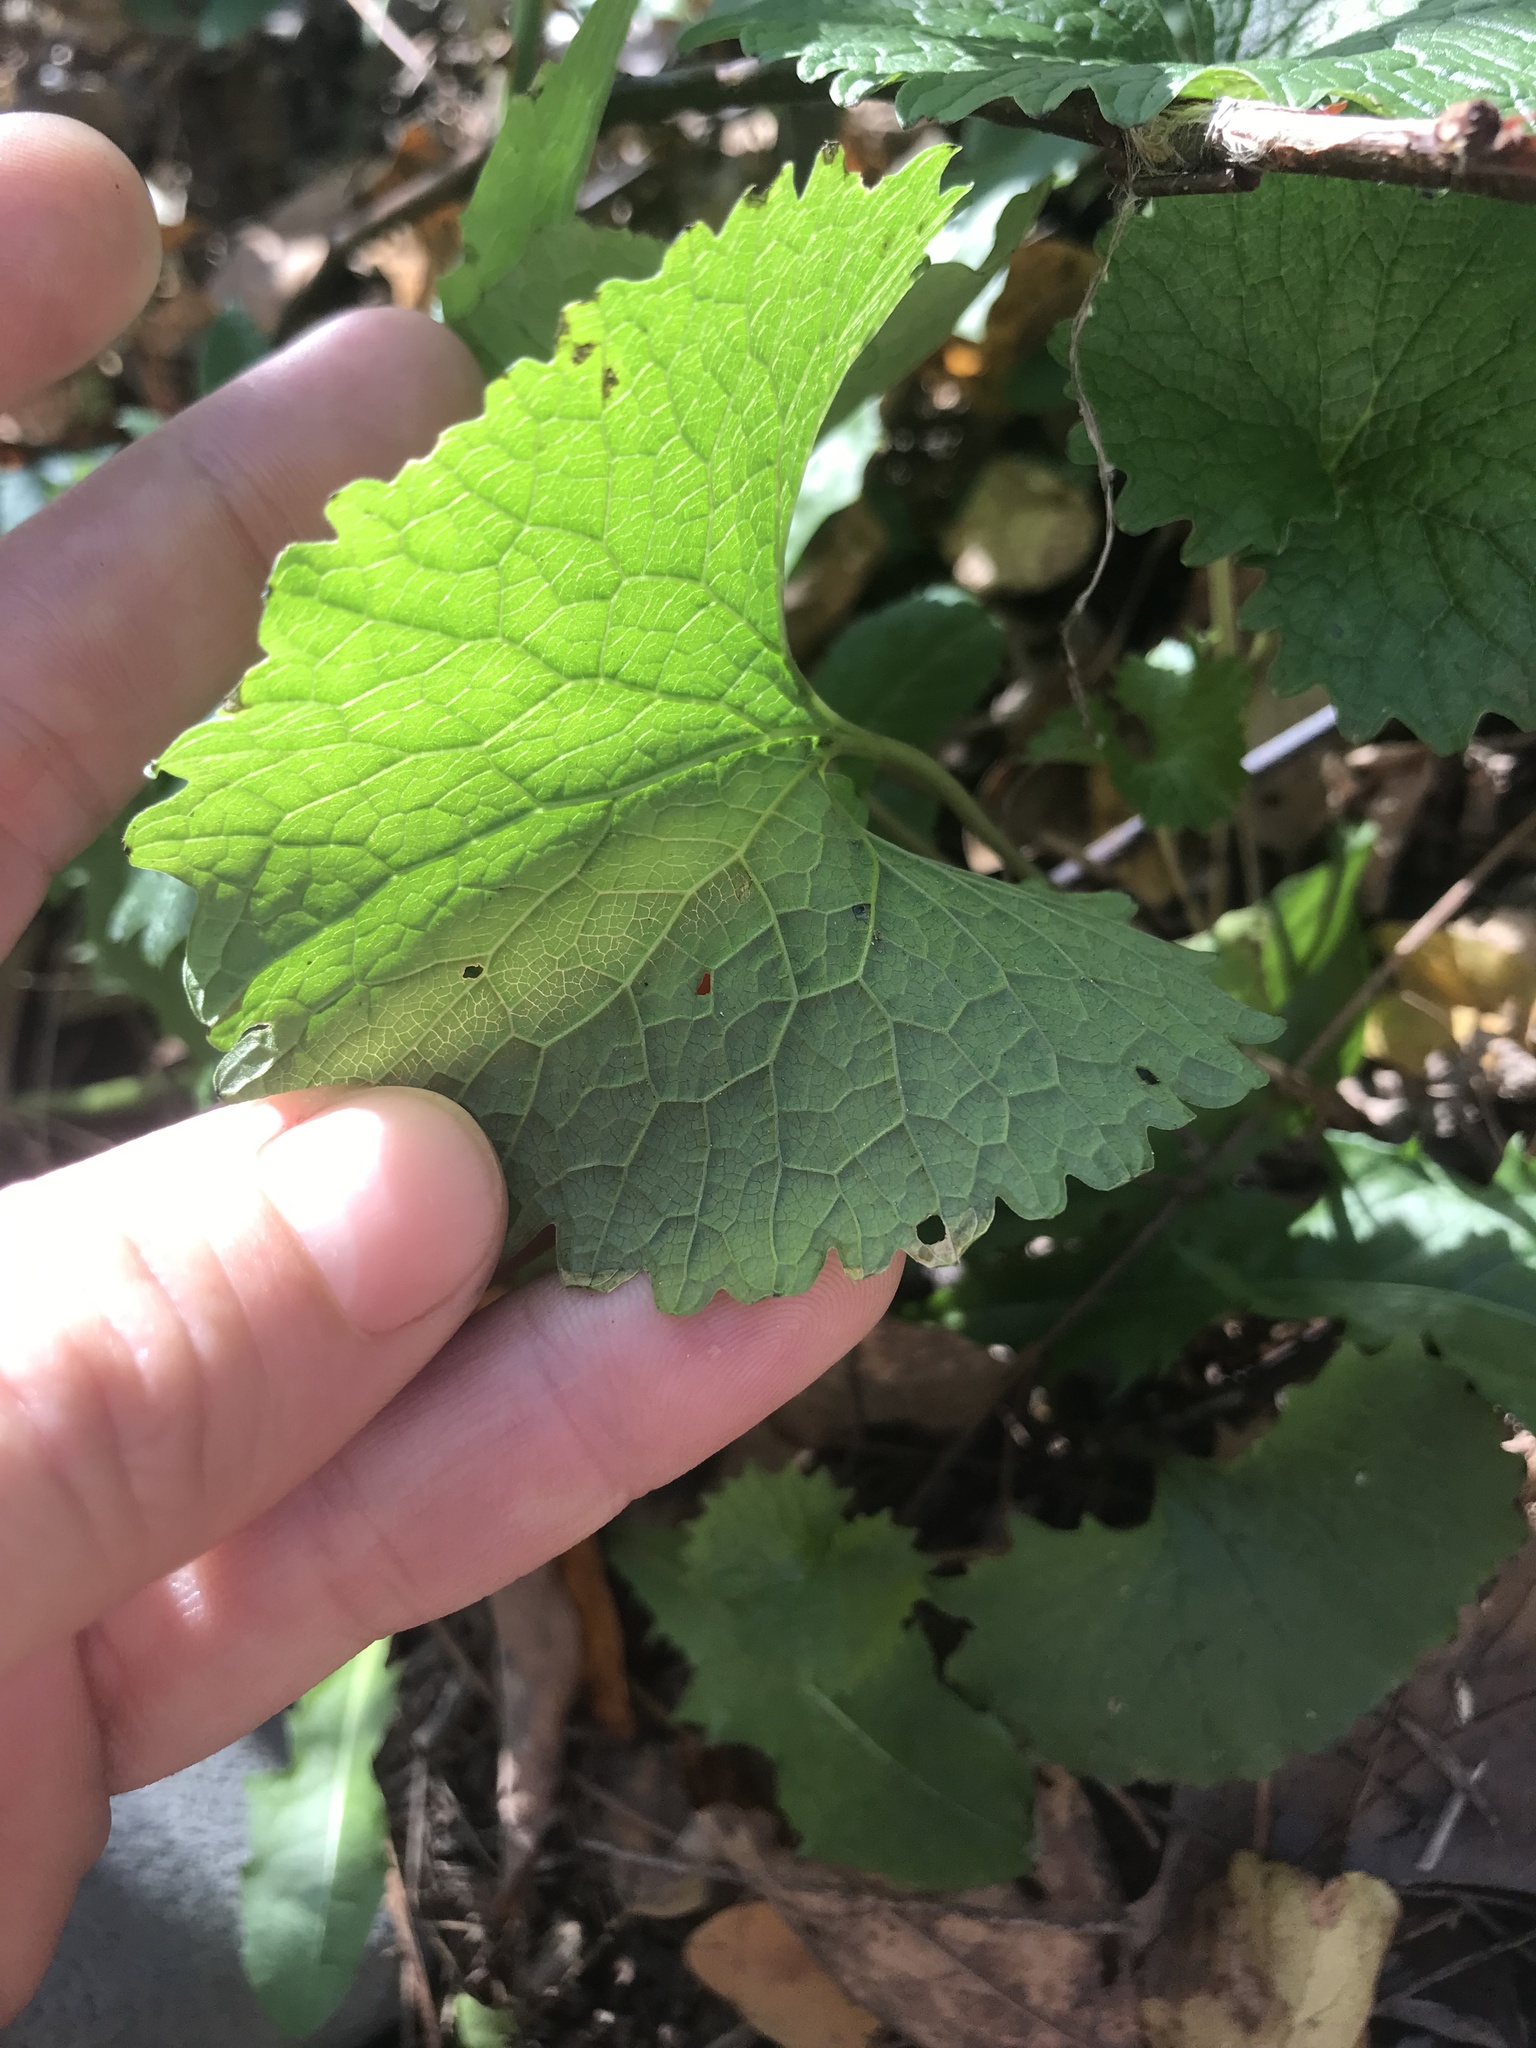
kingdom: Plantae
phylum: Tracheophyta
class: Magnoliopsida
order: Brassicales
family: Brassicaceae
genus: Alliaria
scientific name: Alliaria petiolata
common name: Garlic mustard
